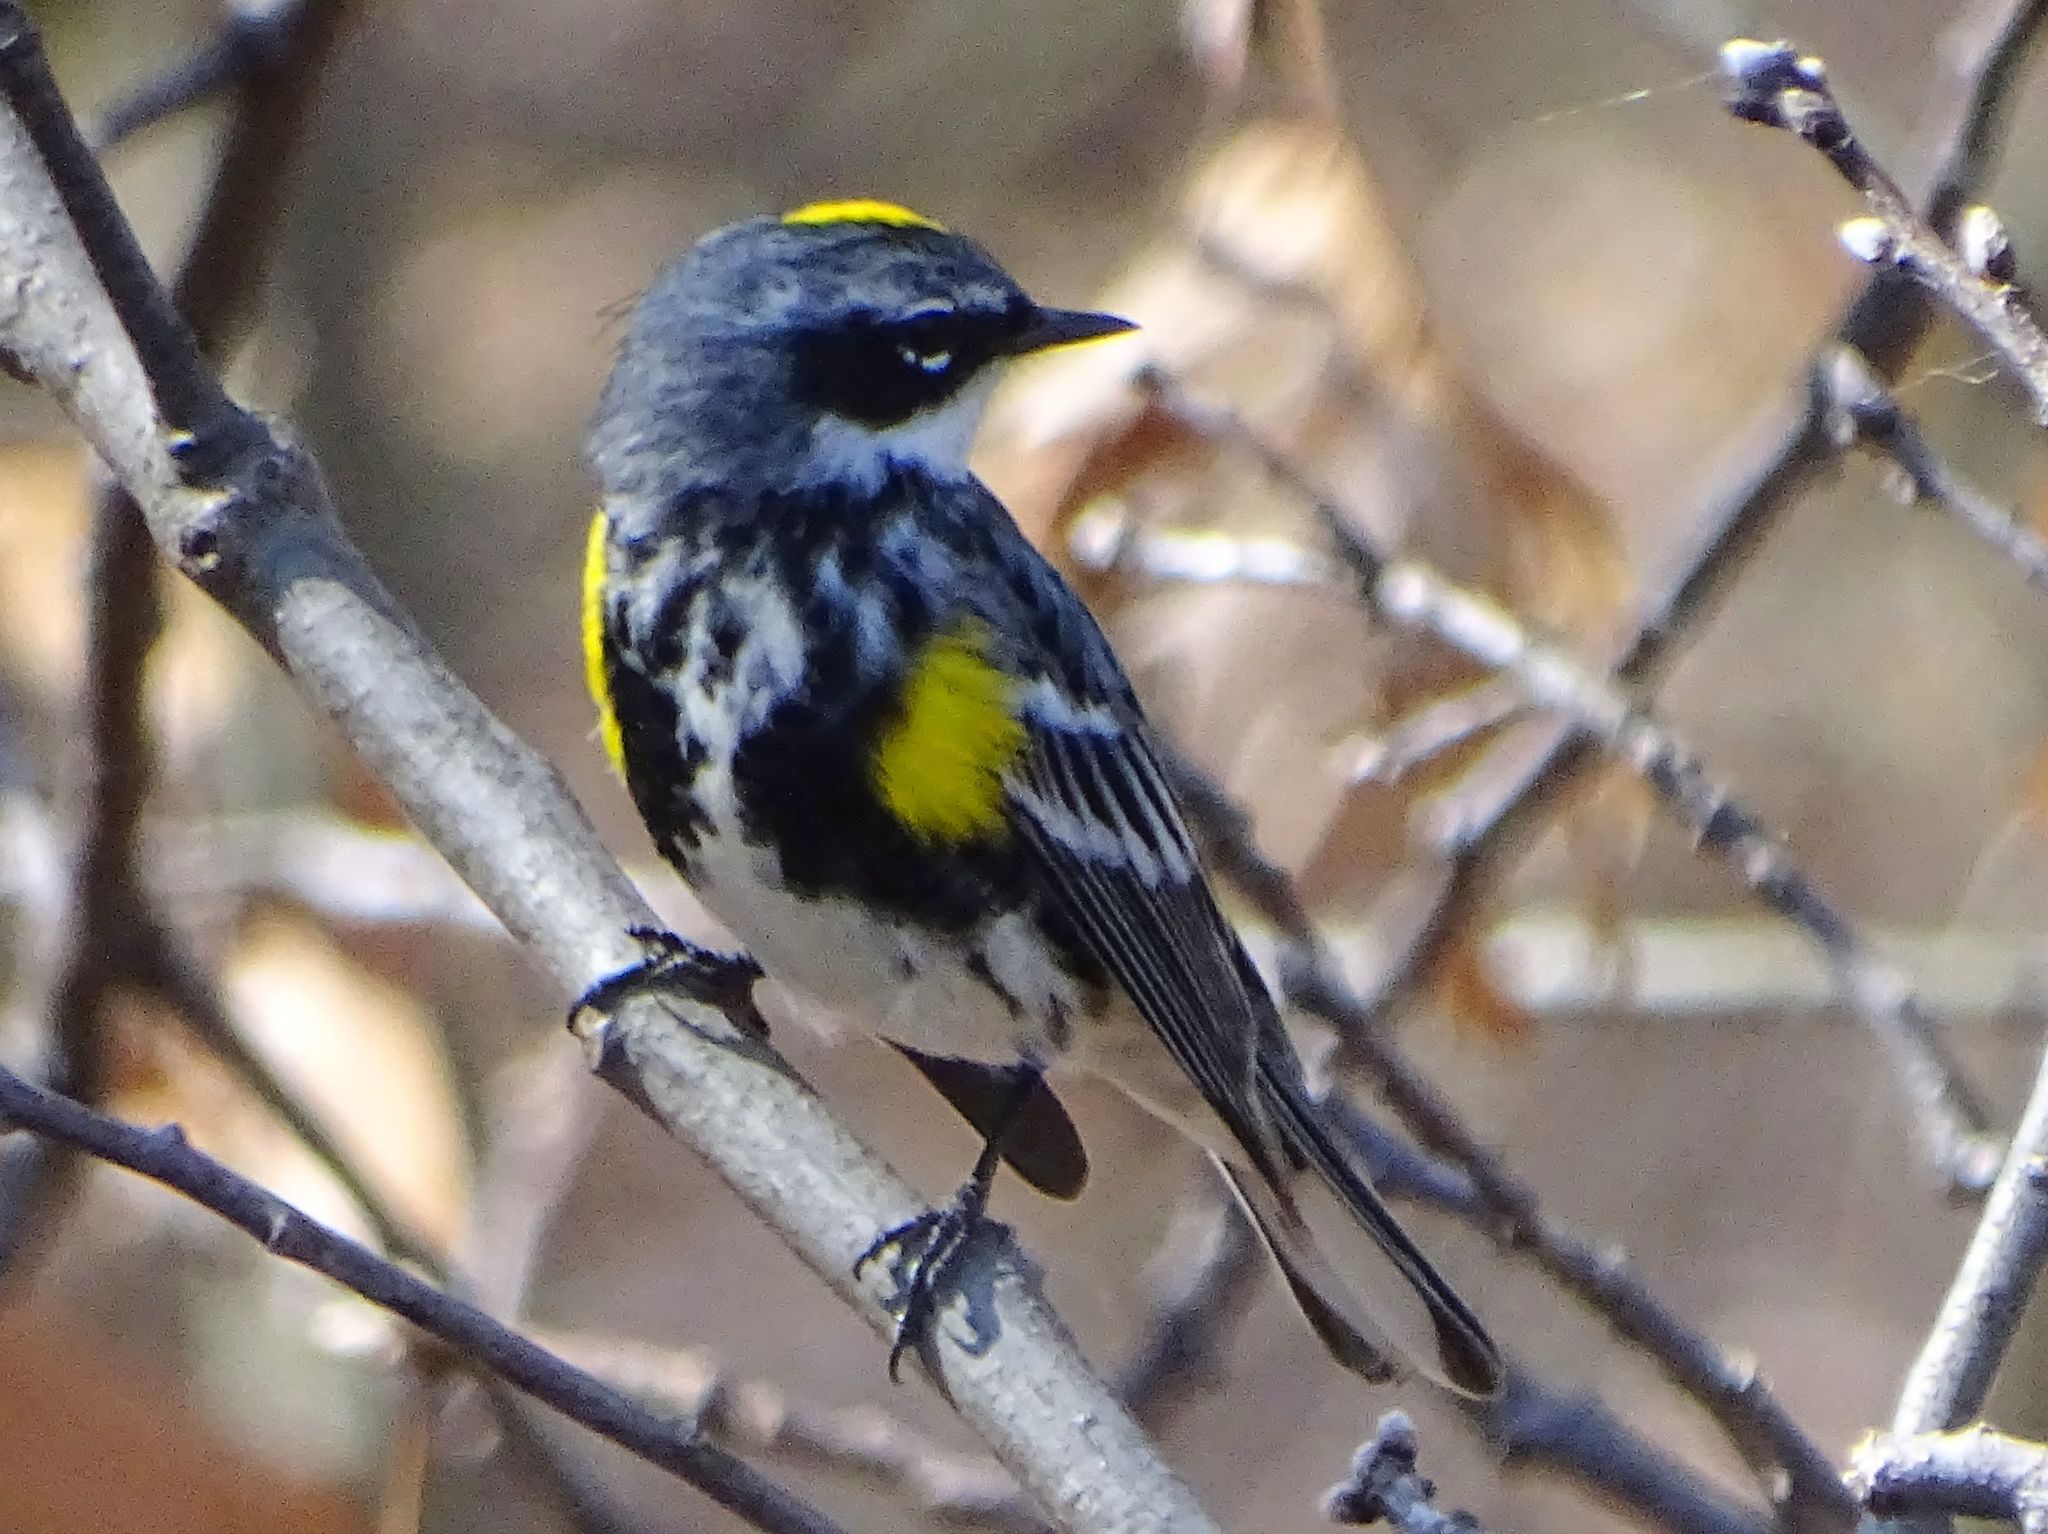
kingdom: Animalia
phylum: Chordata
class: Aves
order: Passeriformes
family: Parulidae
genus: Setophaga
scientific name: Setophaga coronata
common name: Myrtle warbler
